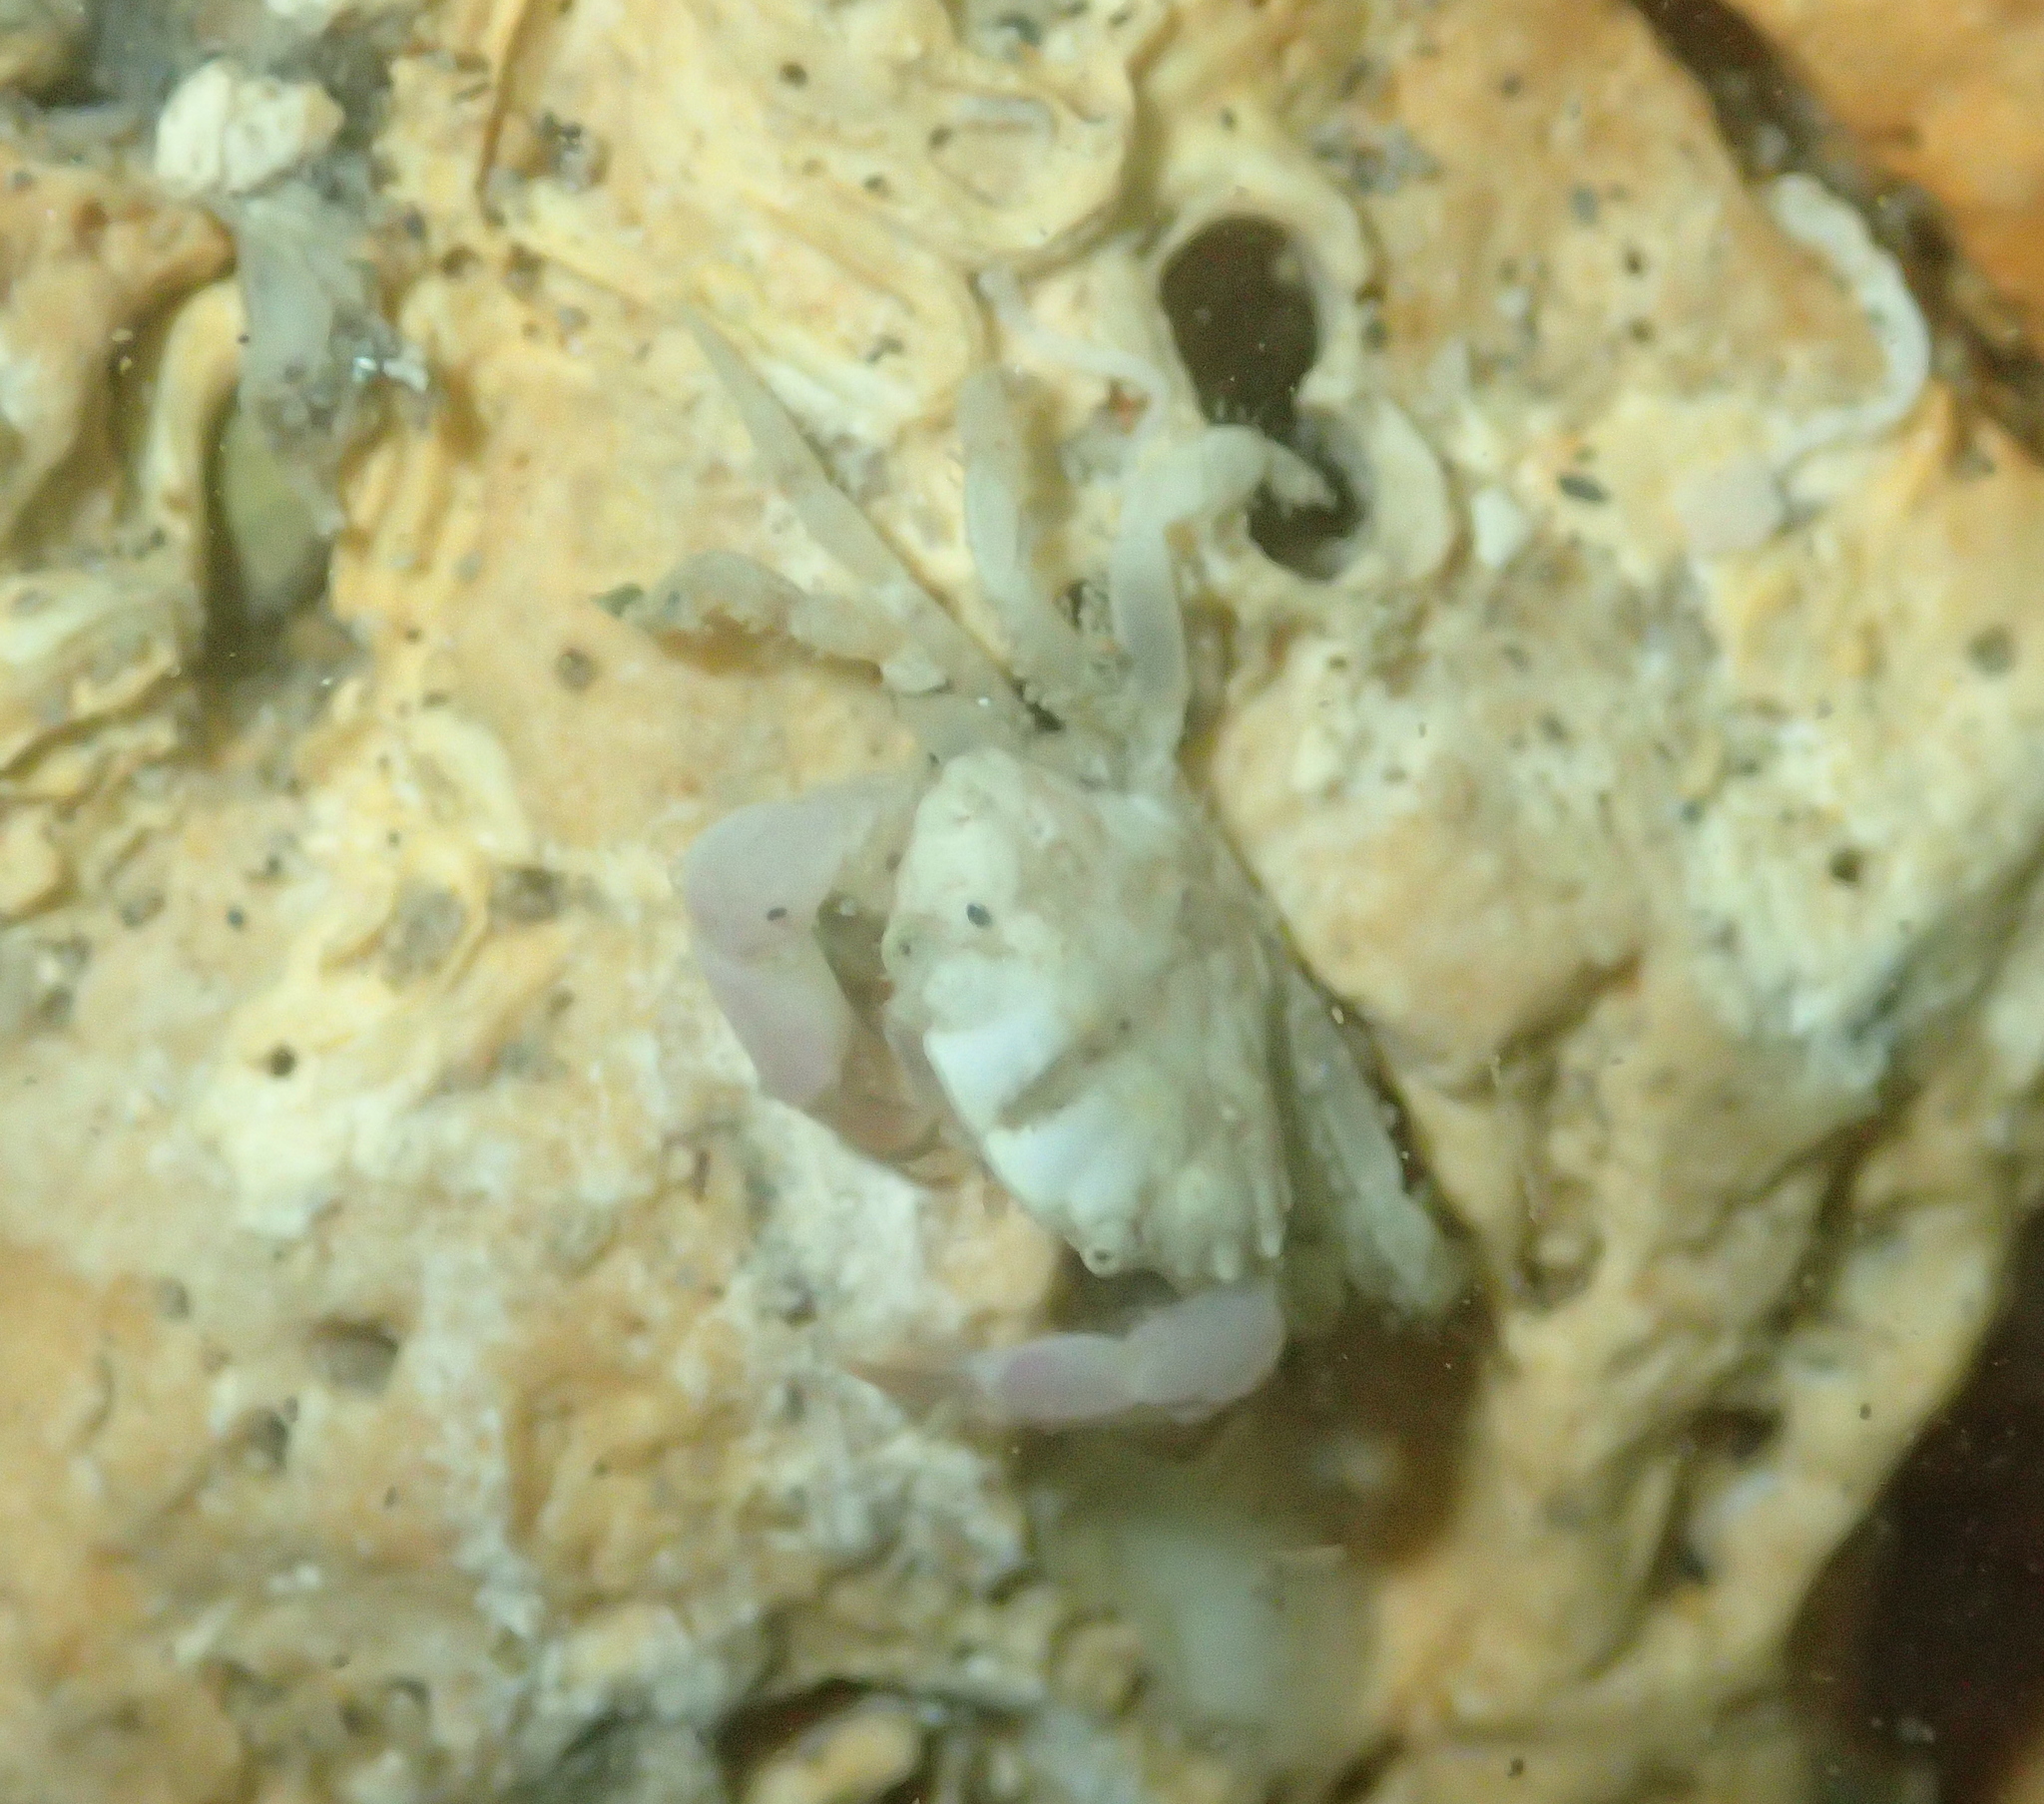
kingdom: Animalia
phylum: Arthropoda
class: Malacostraca
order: Decapoda
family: Xanthidae
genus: Xantho
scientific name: Xantho poressa
